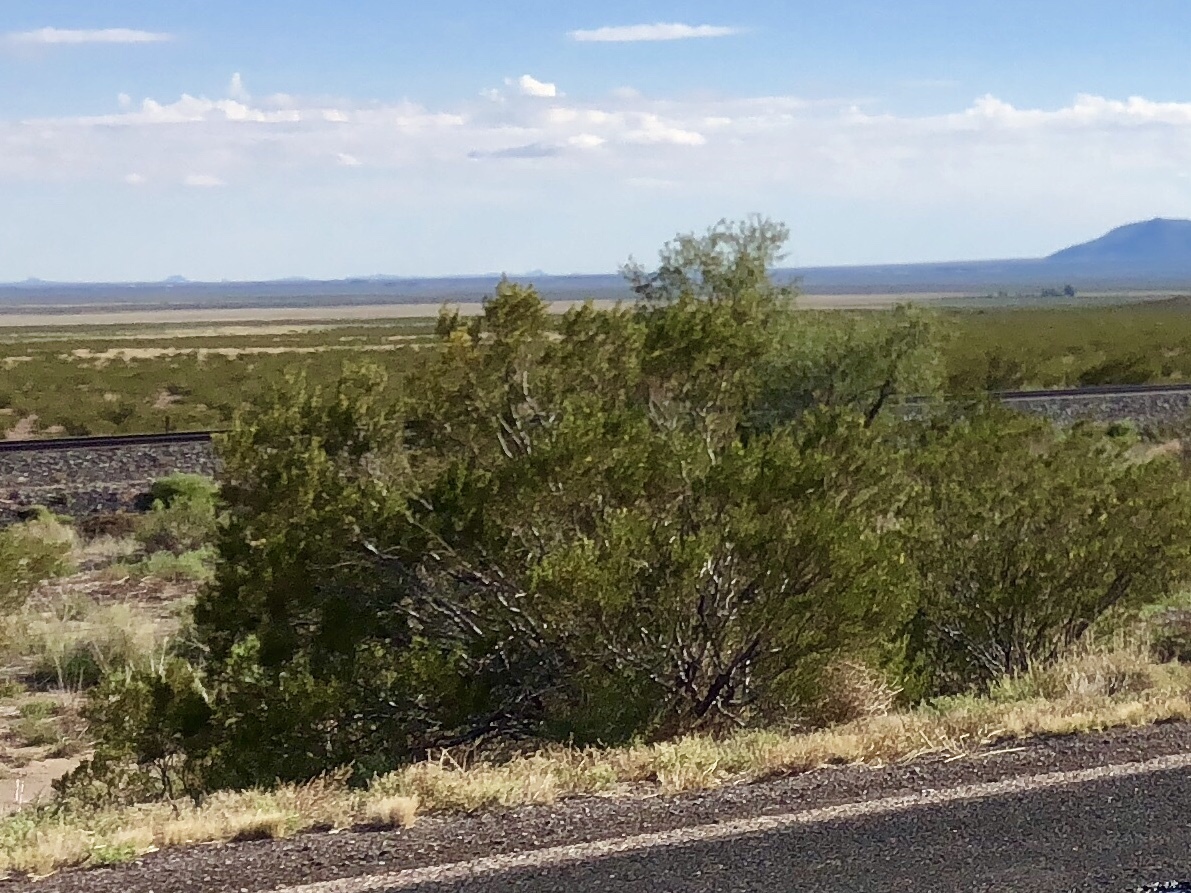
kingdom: Plantae
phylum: Tracheophyta
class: Magnoliopsida
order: Zygophyllales
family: Zygophyllaceae
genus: Larrea
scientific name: Larrea tridentata
